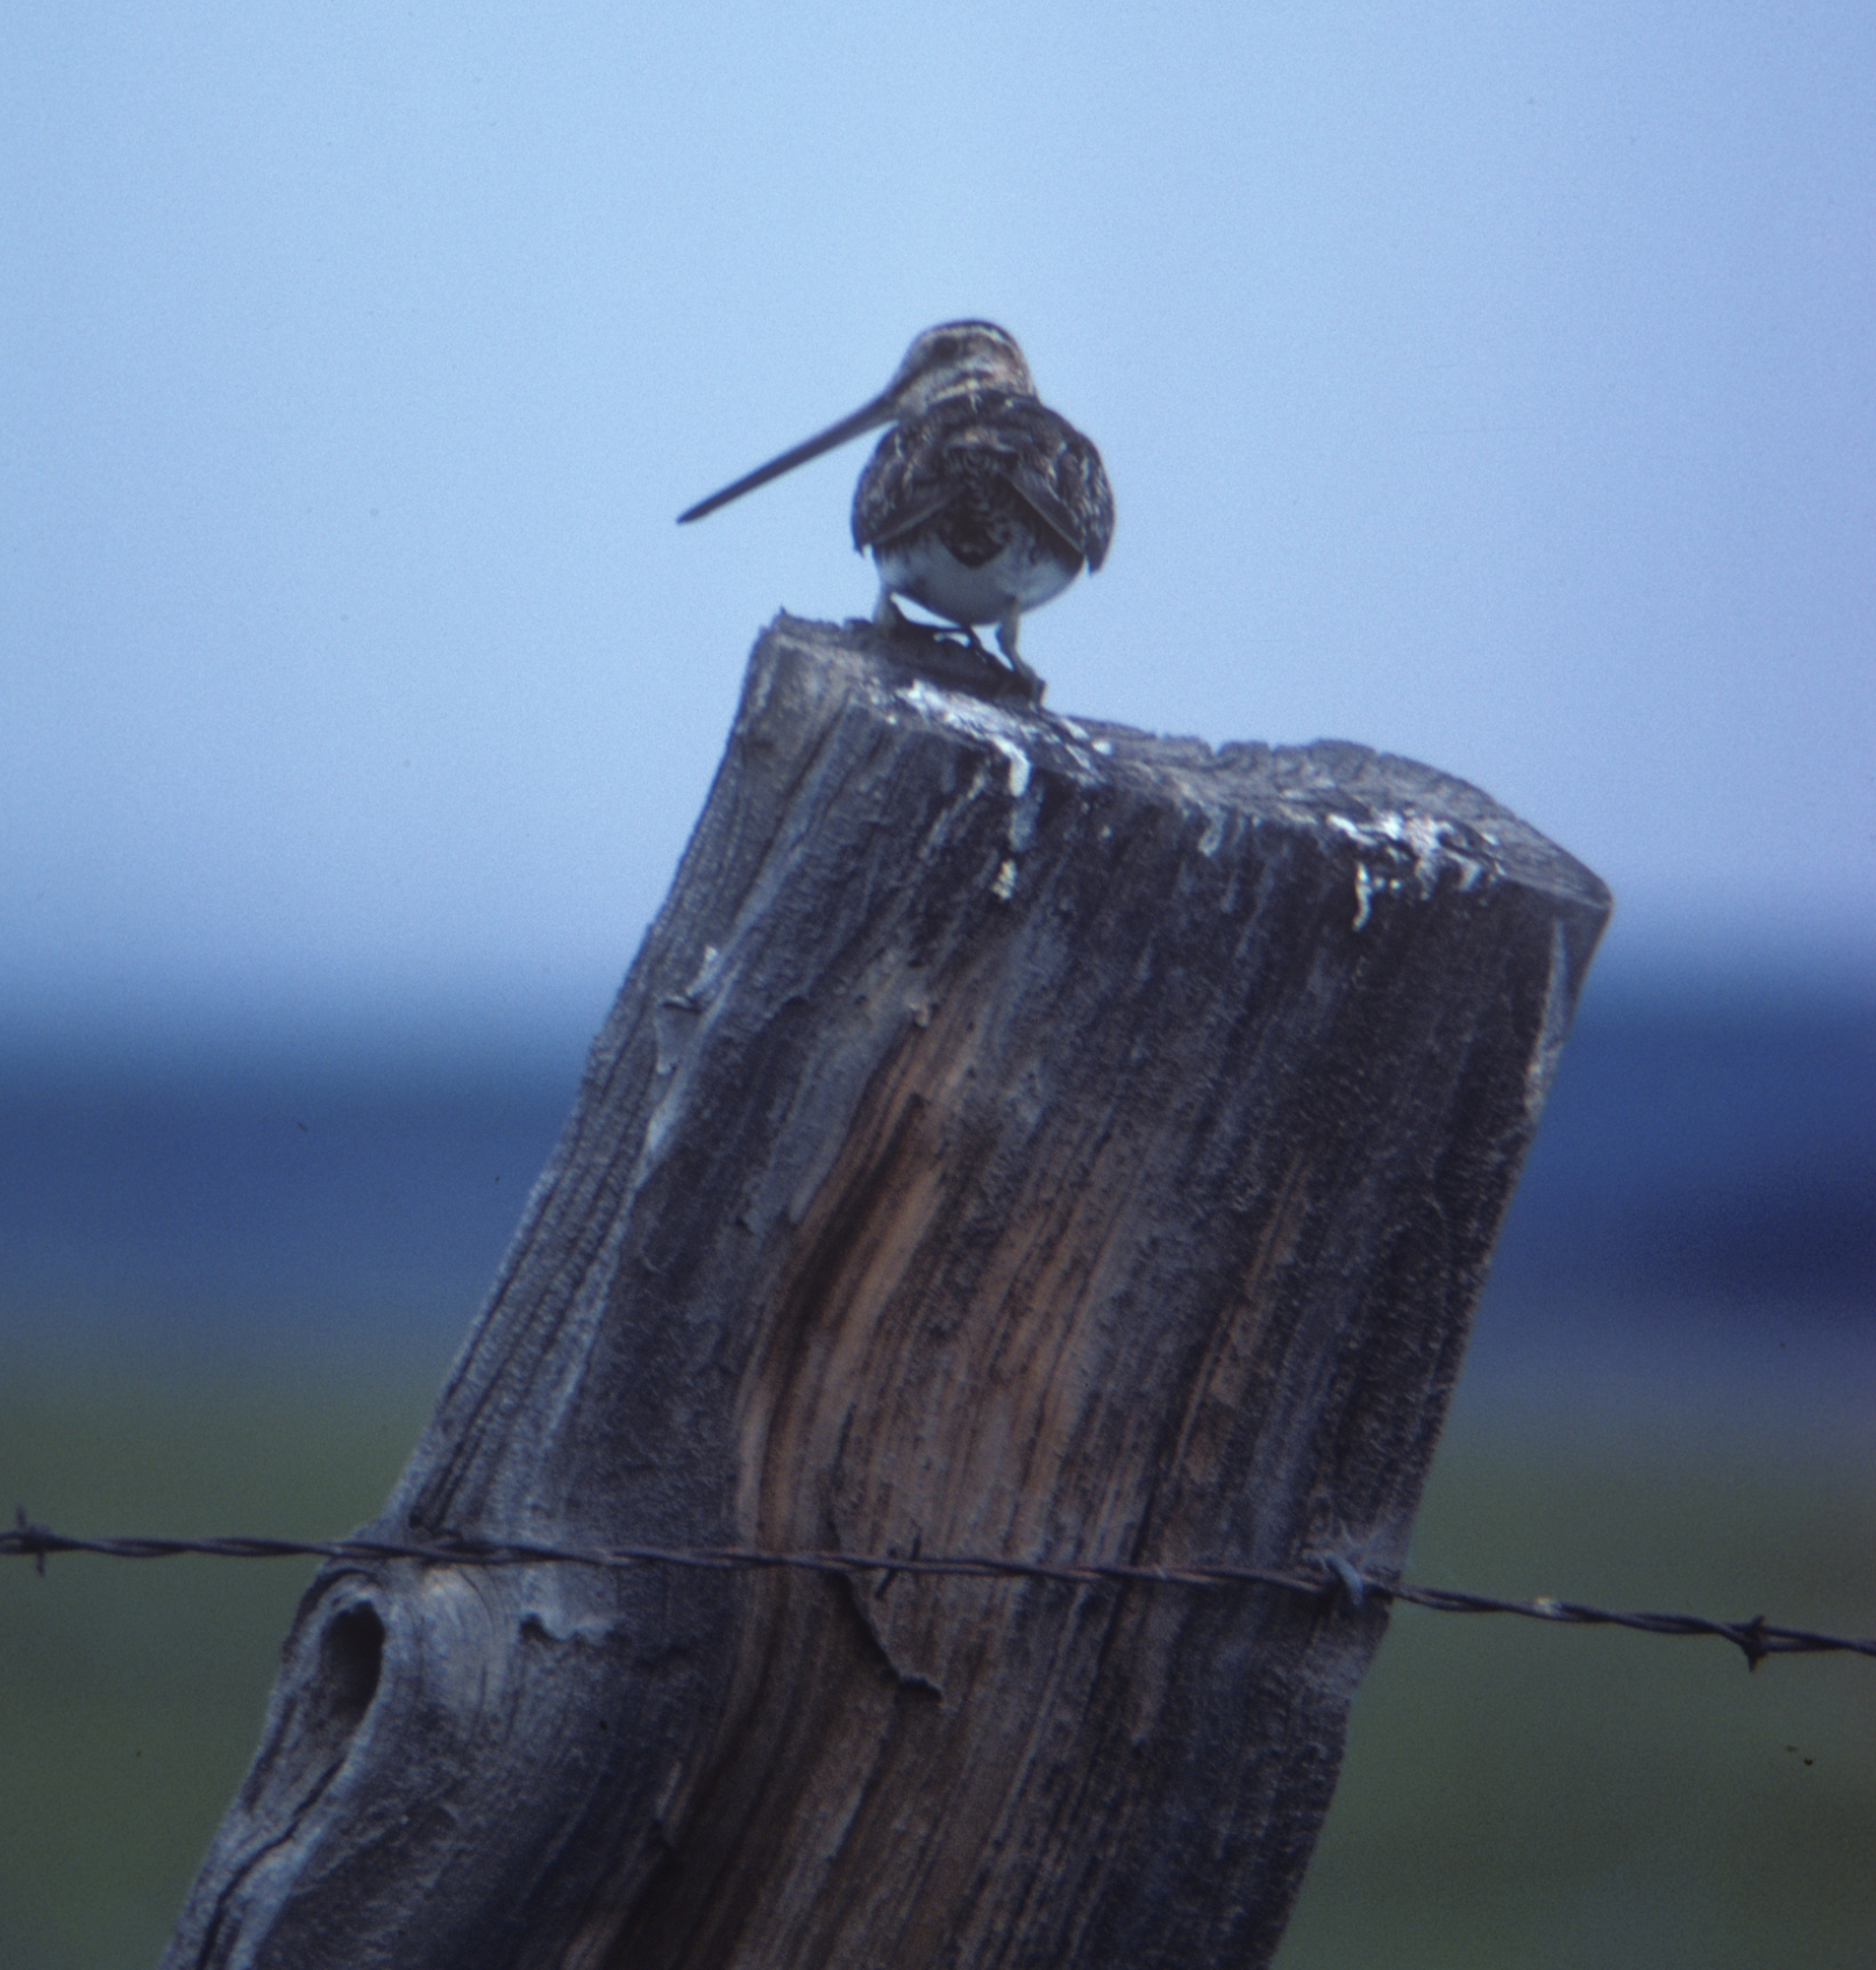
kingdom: Animalia
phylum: Chordata
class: Aves
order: Charadriiformes
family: Scolopacidae
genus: Gallinago
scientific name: Gallinago delicata
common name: Wilson's snipe
